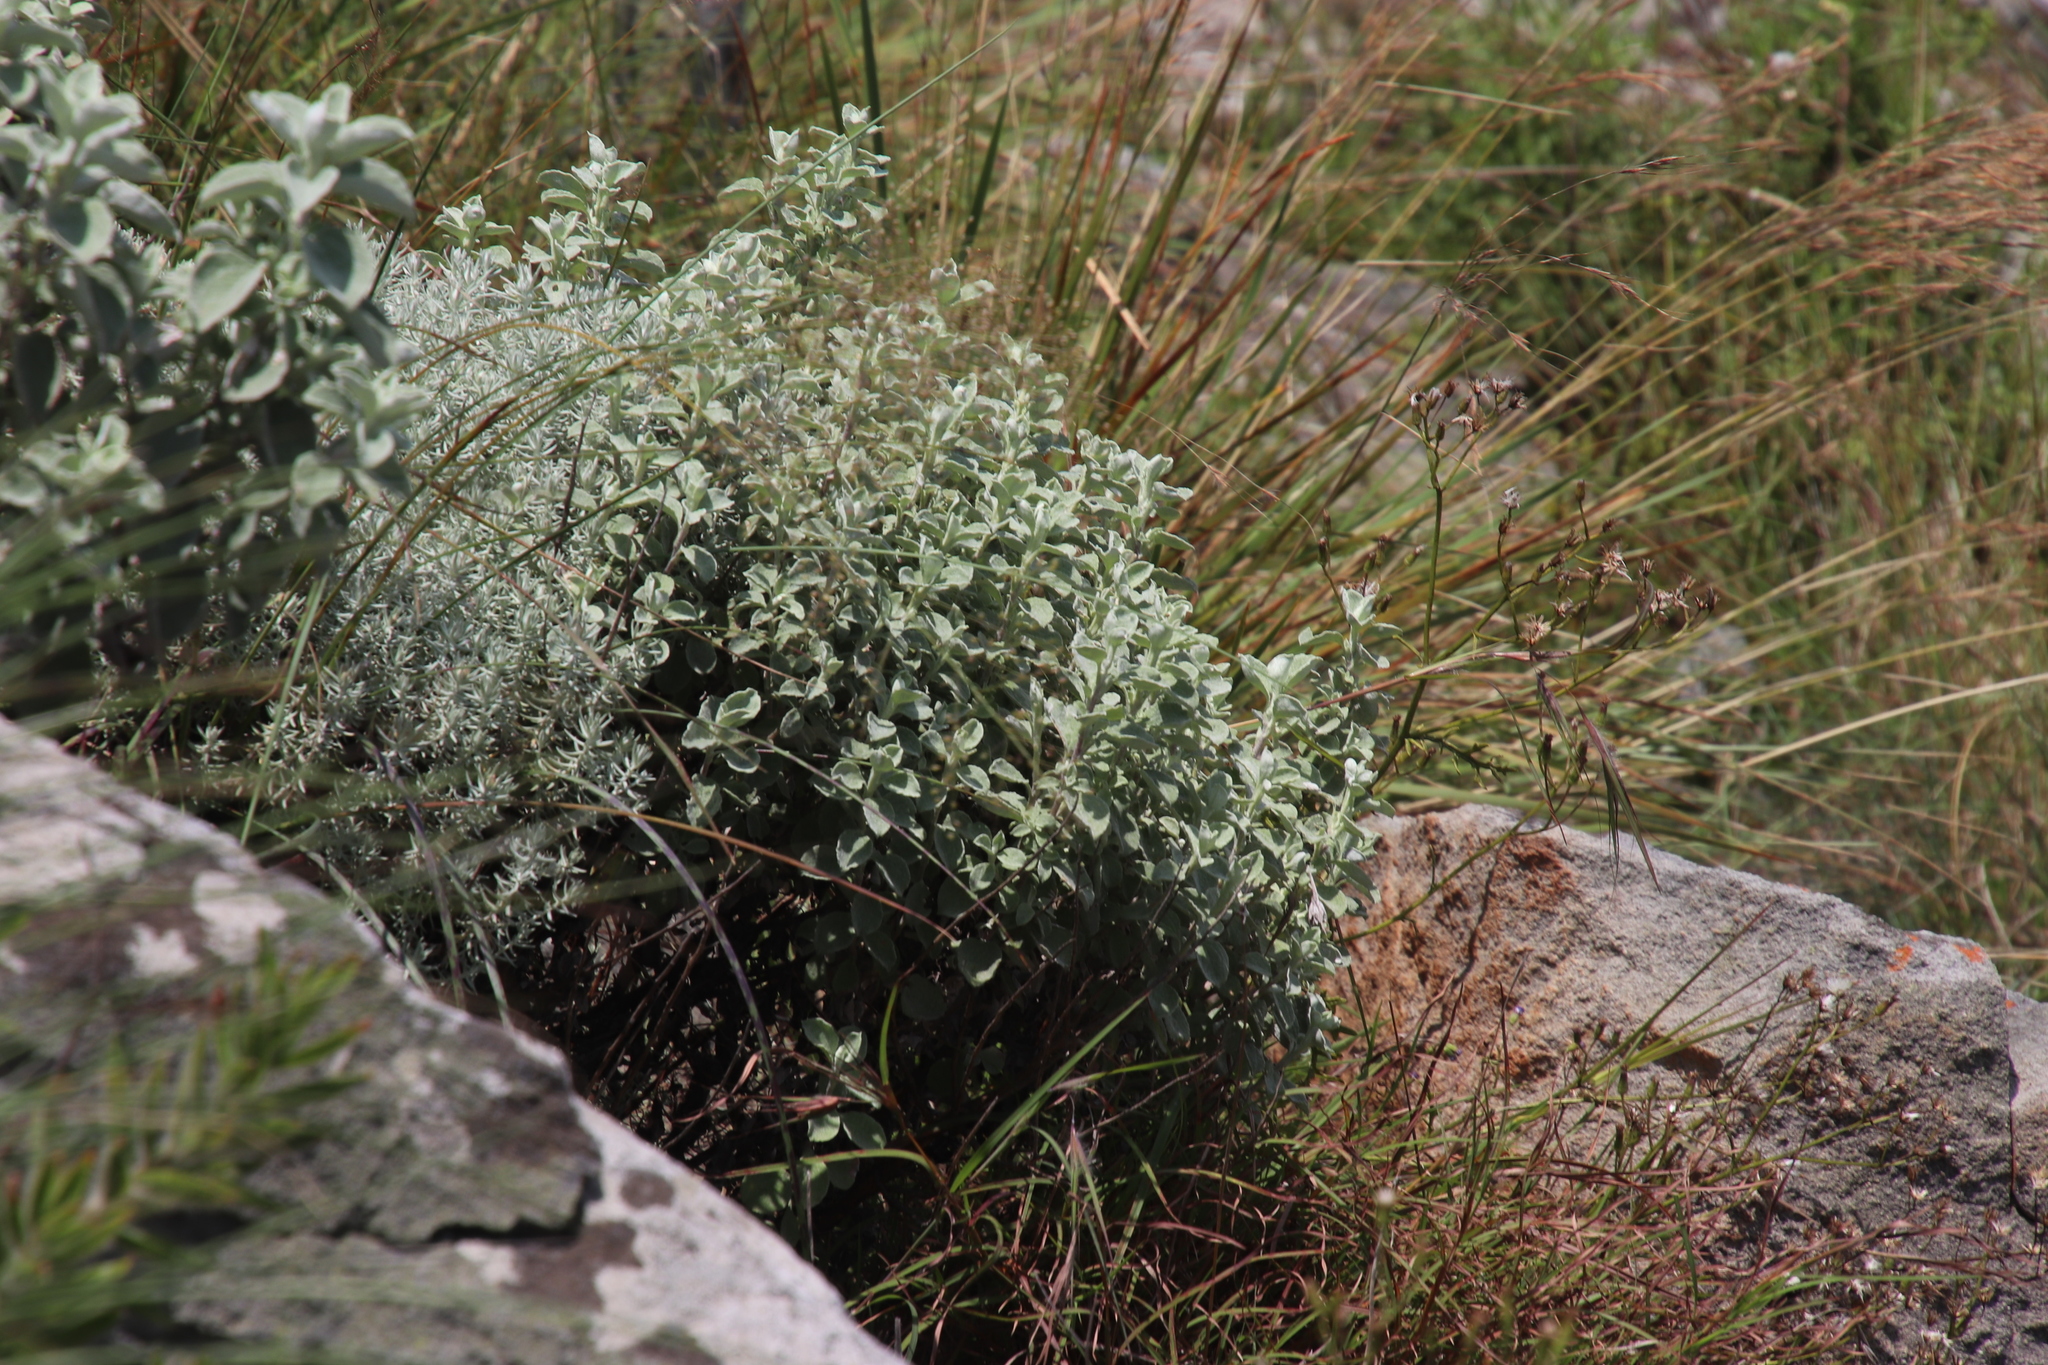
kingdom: Plantae
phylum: Tracheophyta
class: Magnoliopsida
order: Asterales
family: Asteraceae
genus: Helichrysum
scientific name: Helichrysum mimetes
